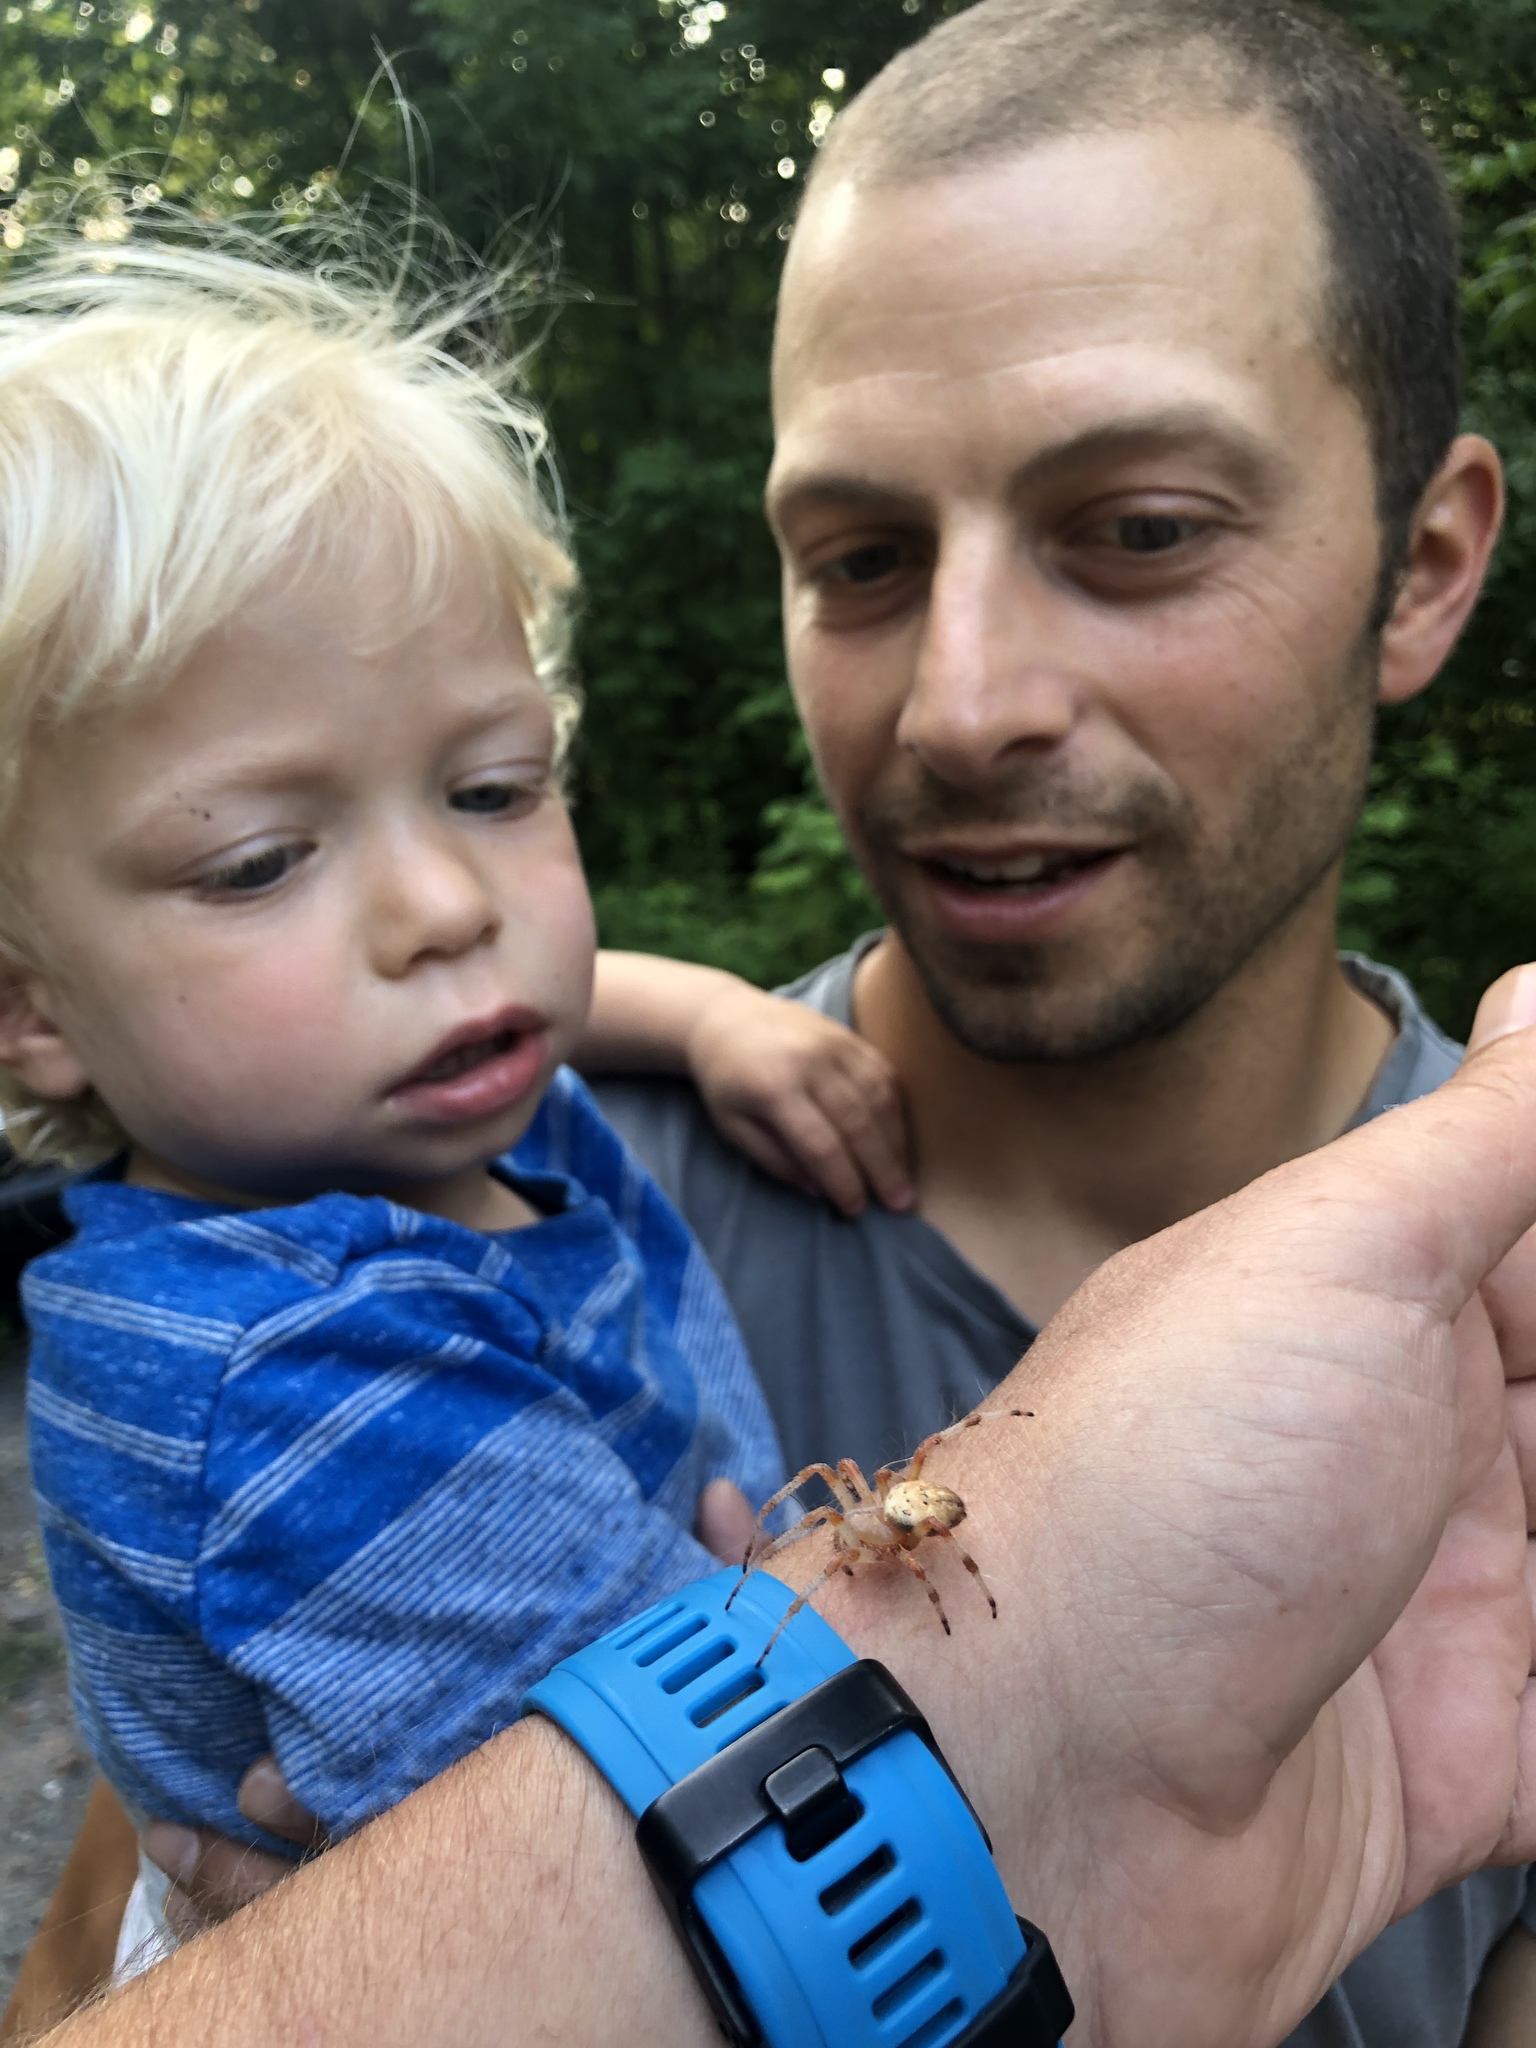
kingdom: Animalia
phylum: Arthropoda
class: Arachnida
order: Araneae
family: Araneidae
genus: Araneus
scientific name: Araneus marmoreus
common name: Marbled orbweaver
